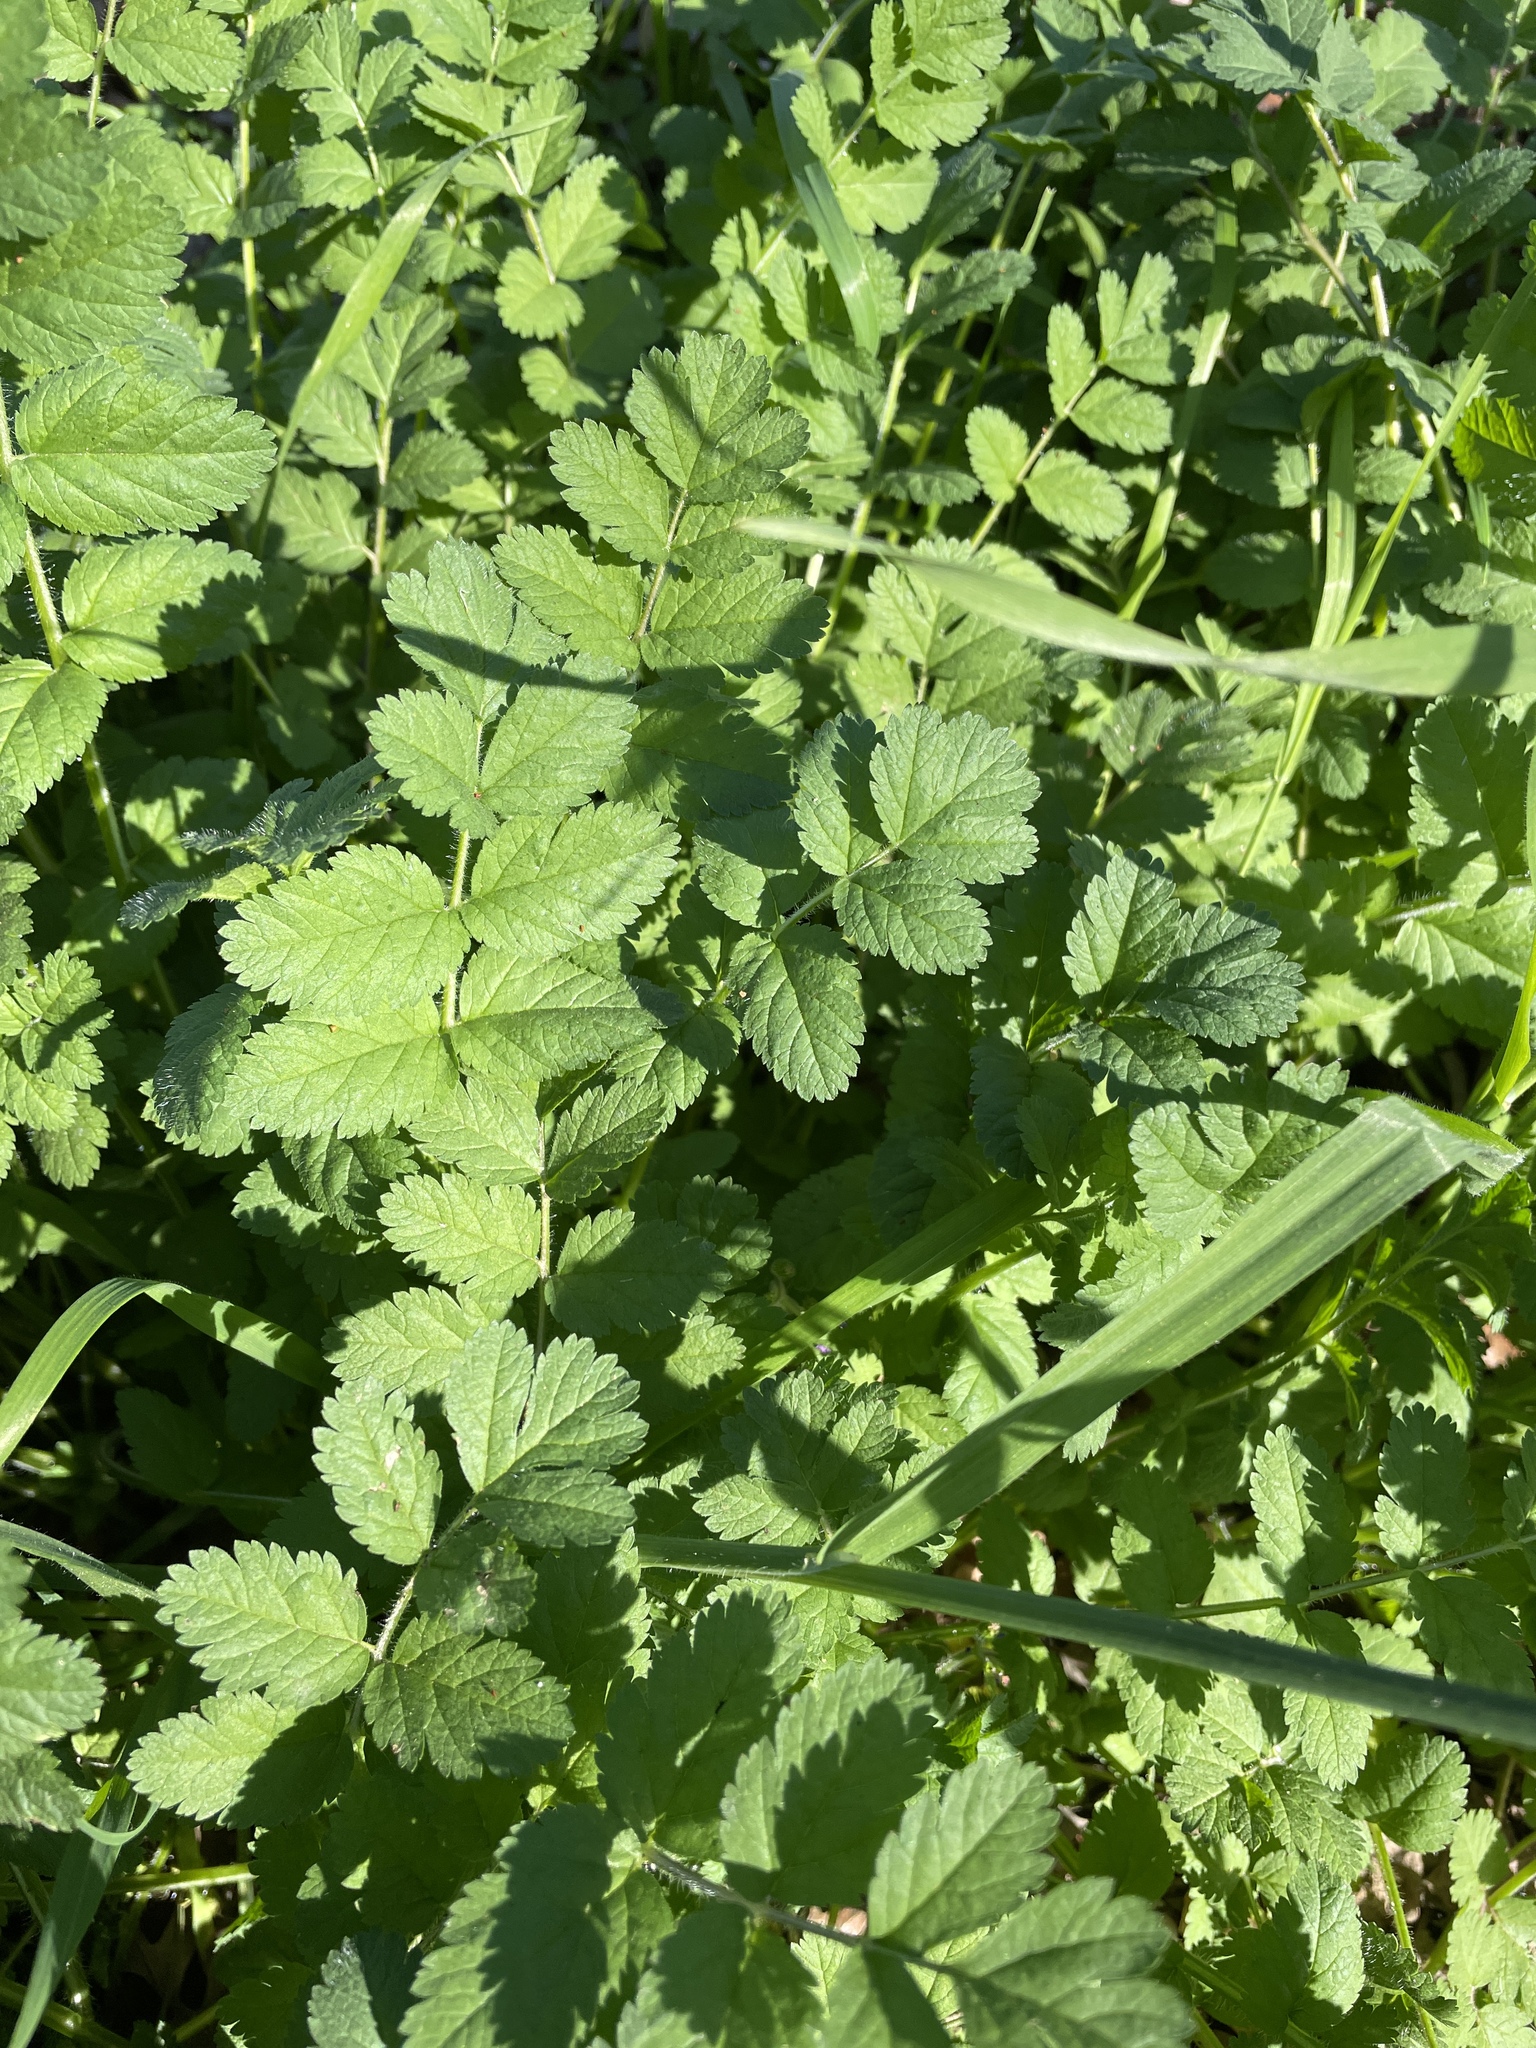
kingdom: Plantae
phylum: Tracheophyta
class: Magnoliopsida
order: Geraniales
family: Geraniaceae
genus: Erodium
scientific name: Erodium
